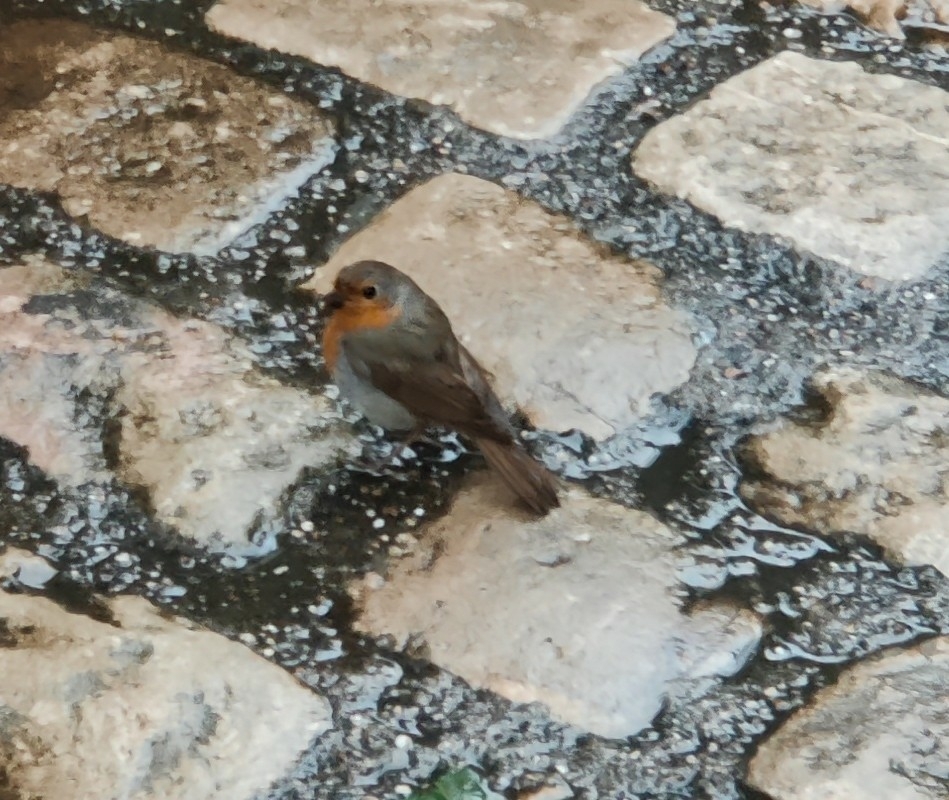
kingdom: Animalia
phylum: Chordata
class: Aves
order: Passeriformes
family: Muscicapidae
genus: Erithacus
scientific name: Erithacus rubecula
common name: European robin
